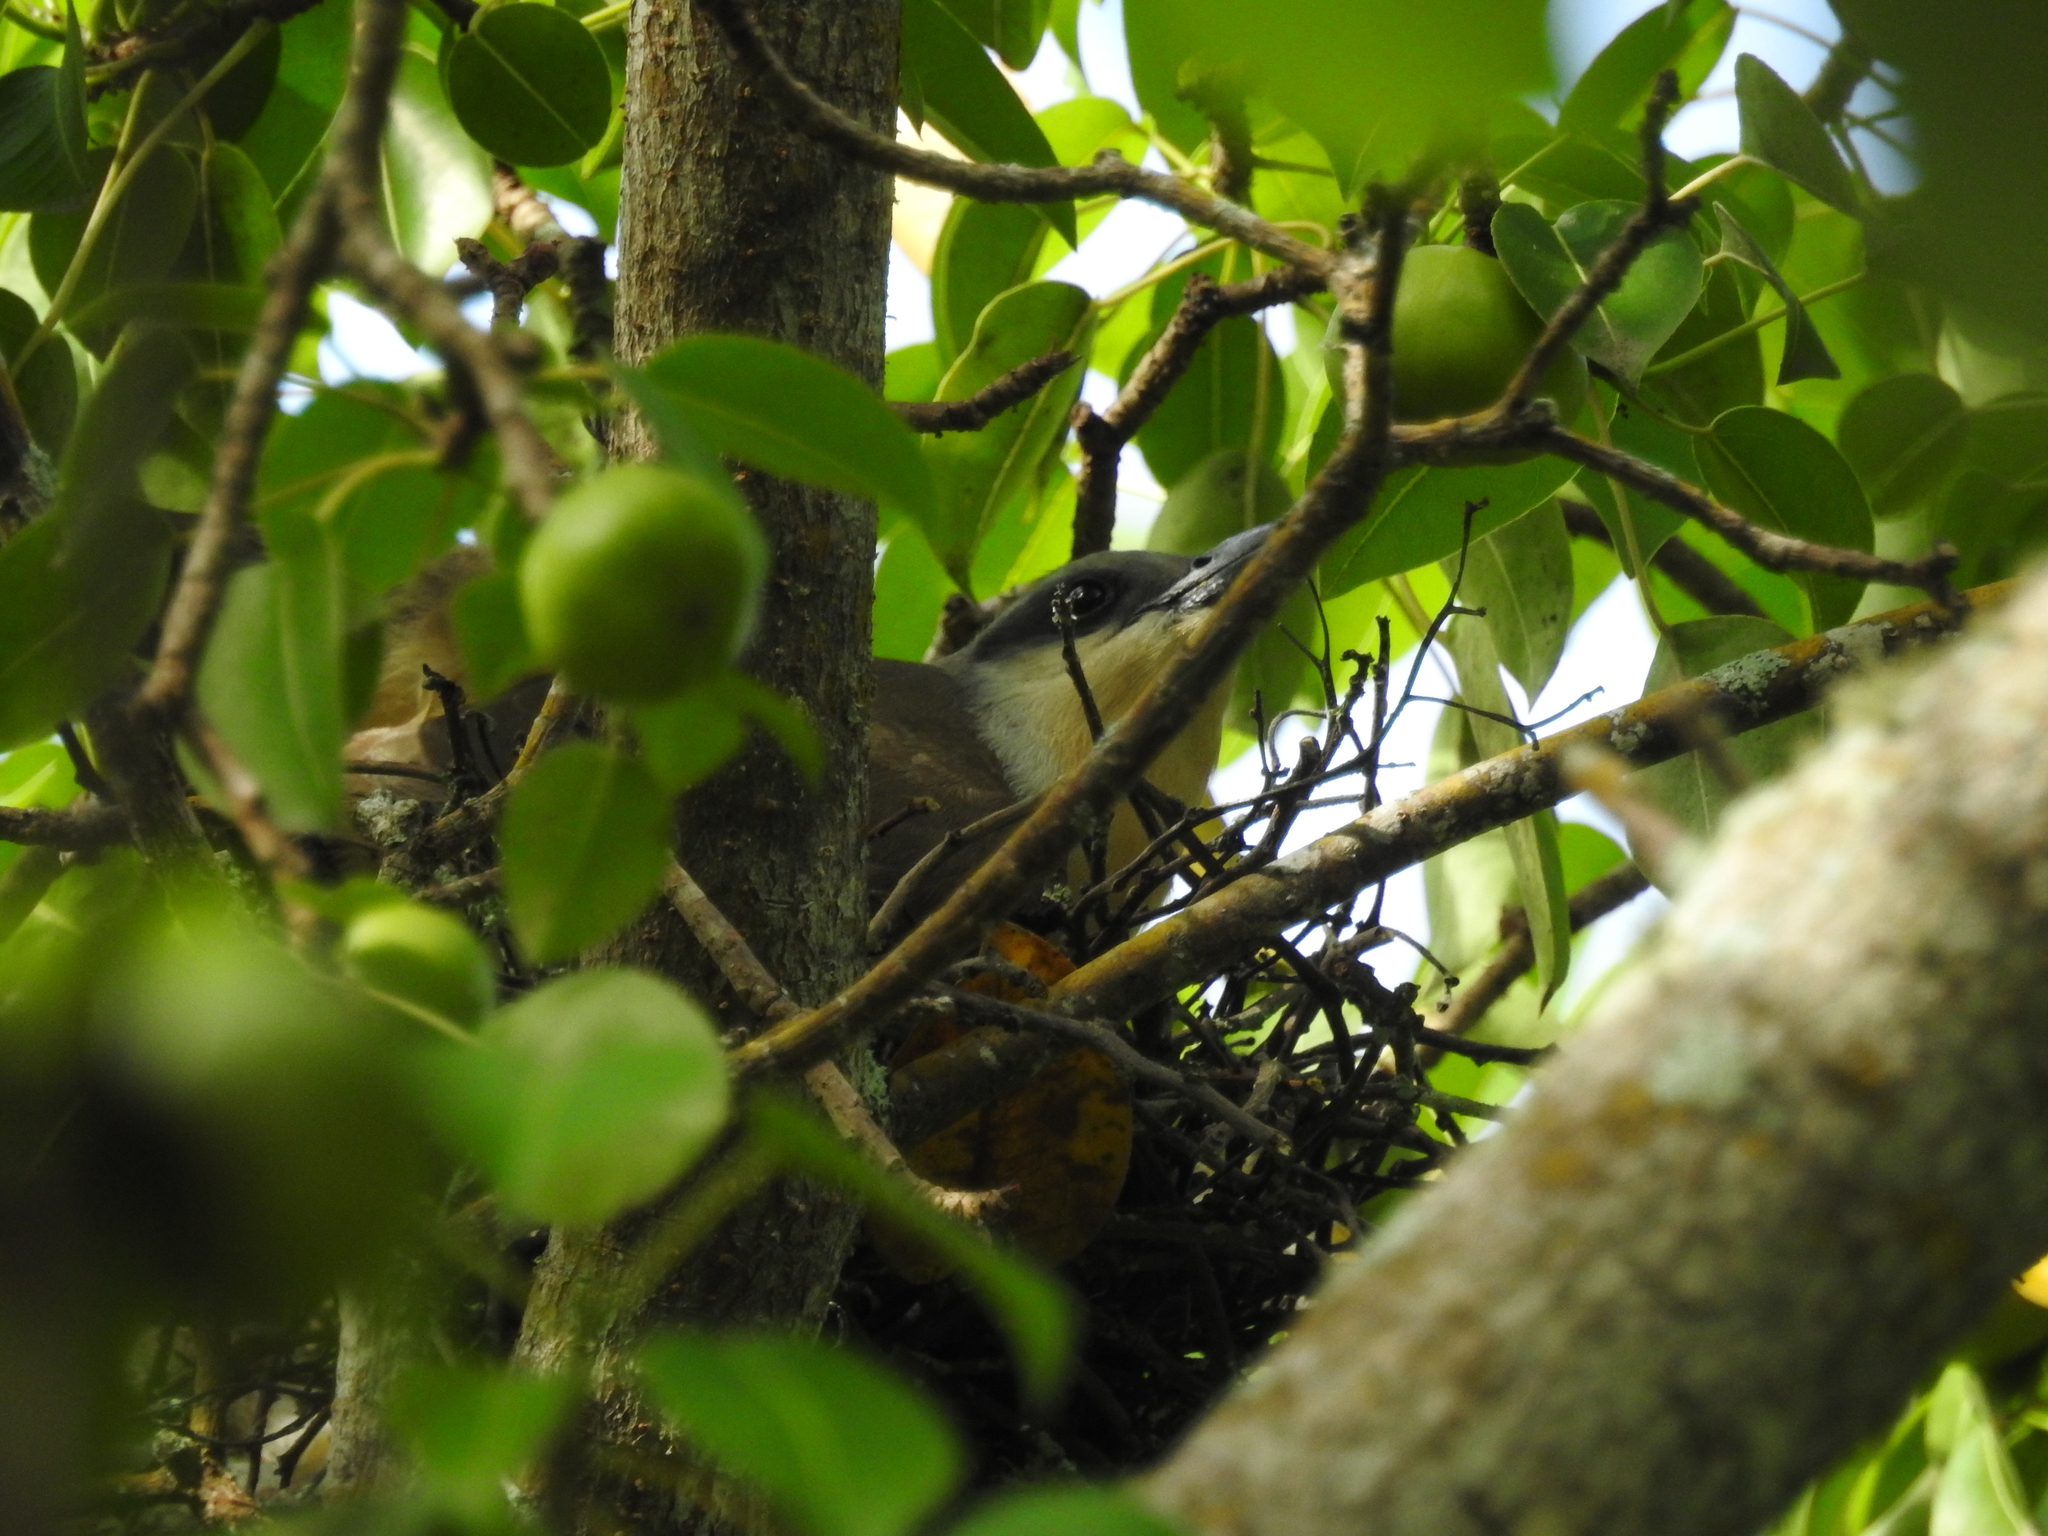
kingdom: Animalia
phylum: Chordata
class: Aves
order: Cuculiformes
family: Cuculidae
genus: Coccyzus
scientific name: Coccyzus melacoryphus
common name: Dark-billed cuckoo
